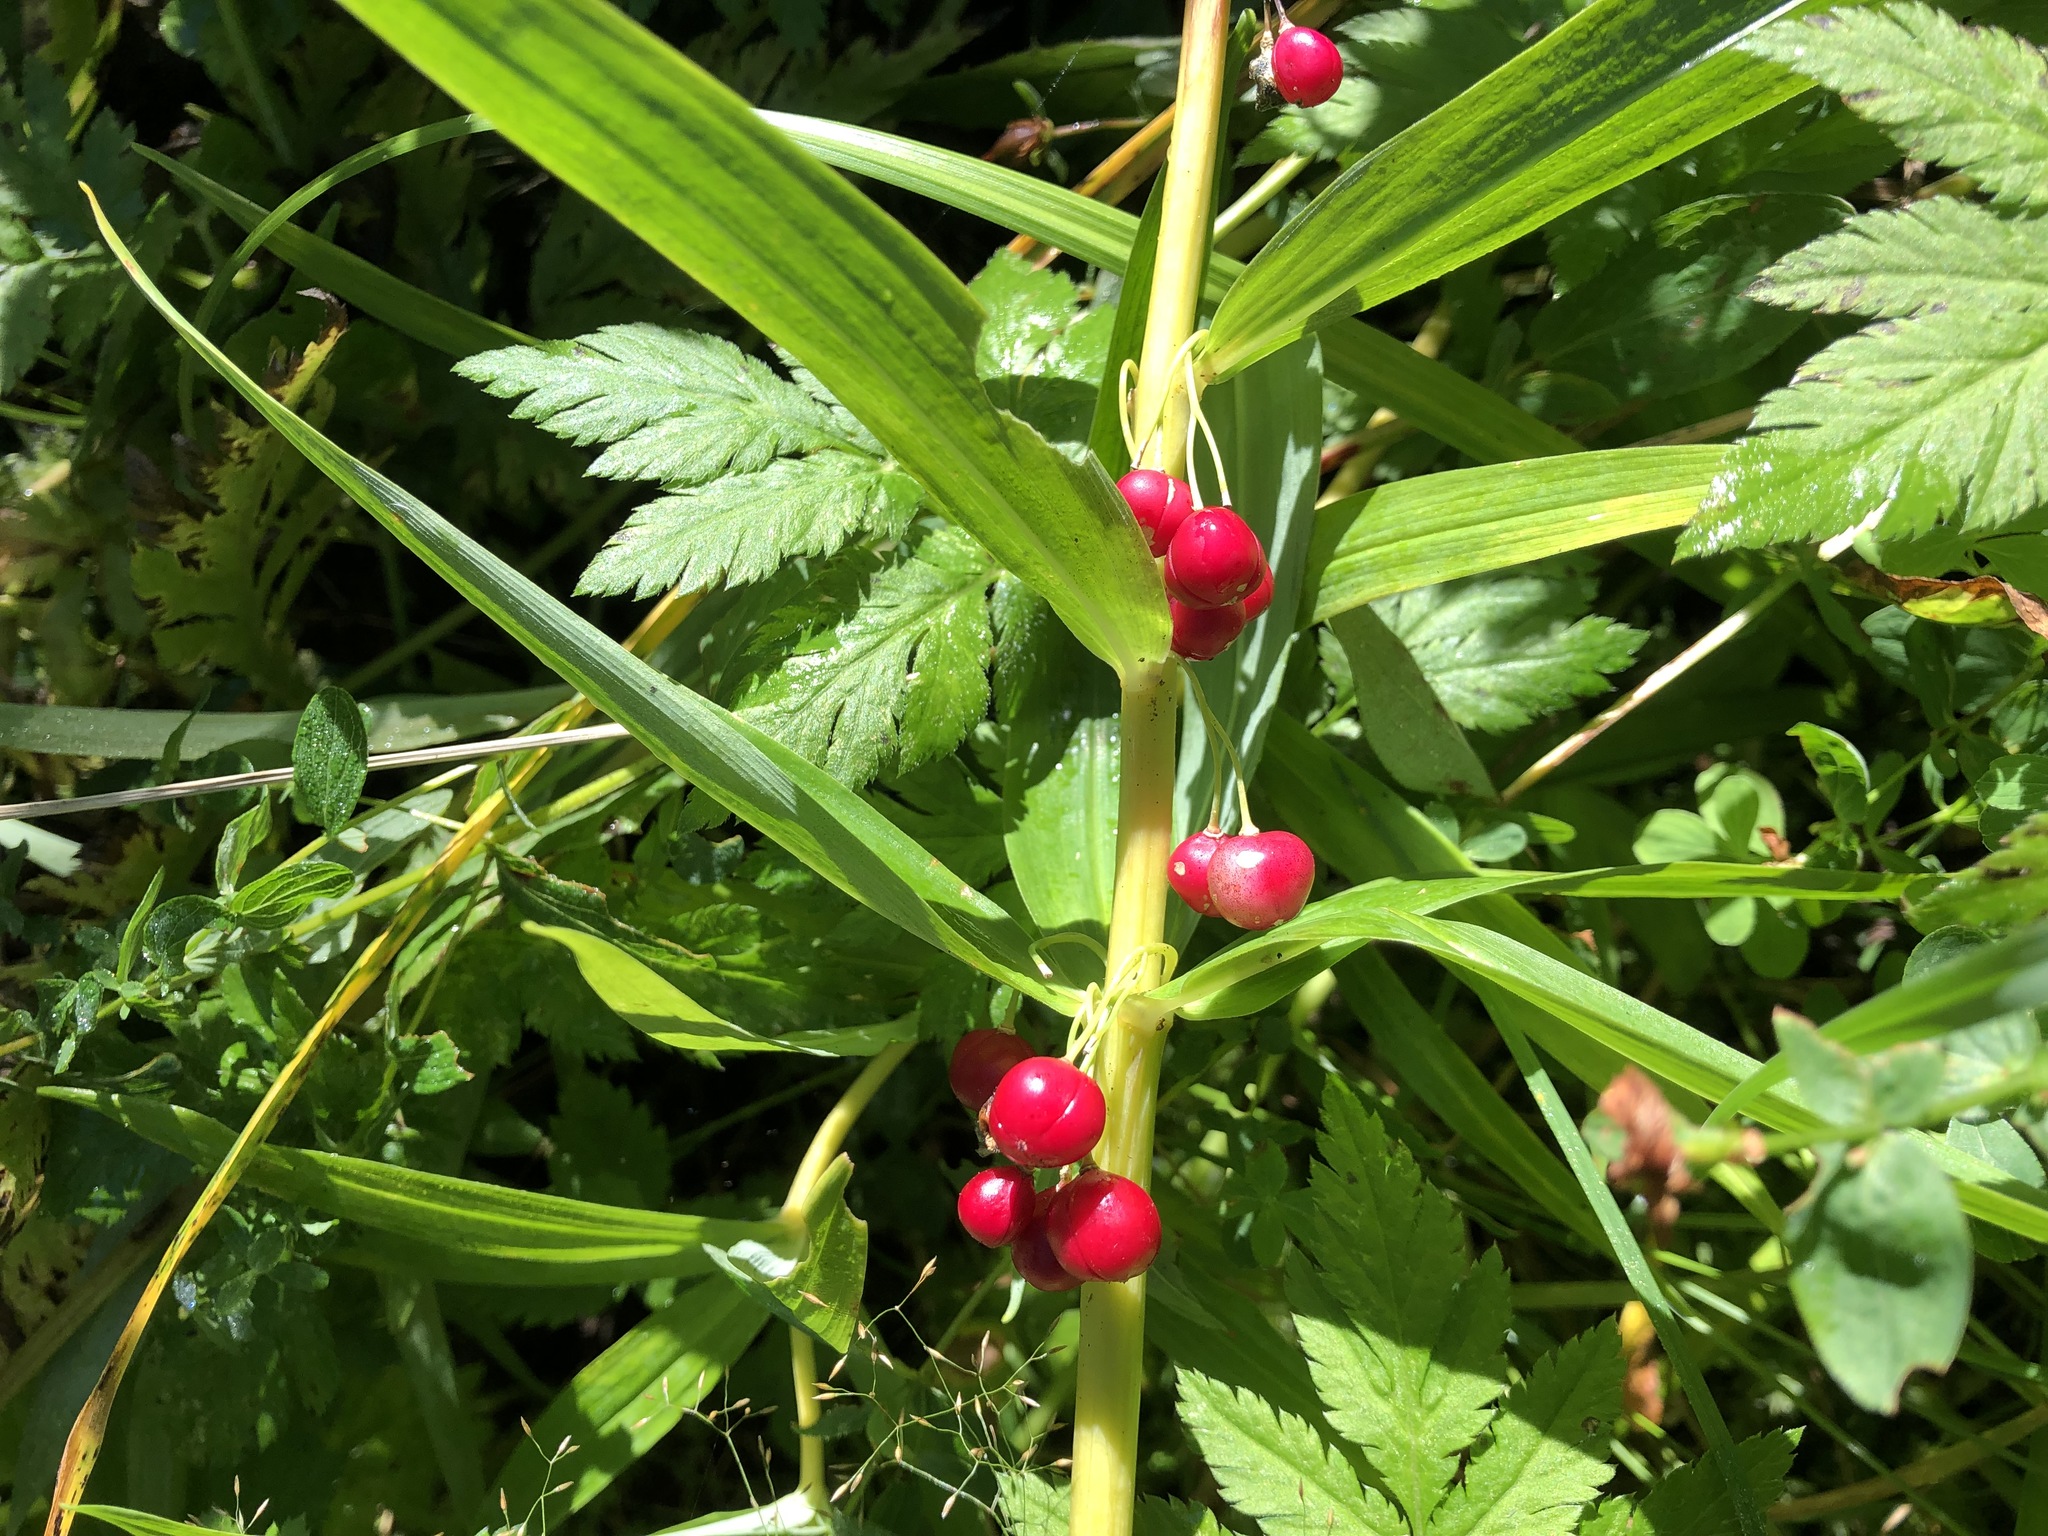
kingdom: Plantae
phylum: Tracheophyta
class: Liliopsida
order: Asparagales
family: Asparagaceae
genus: Polygonatum
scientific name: Polygonatum verticillatum
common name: Whorled solomon's-seal
